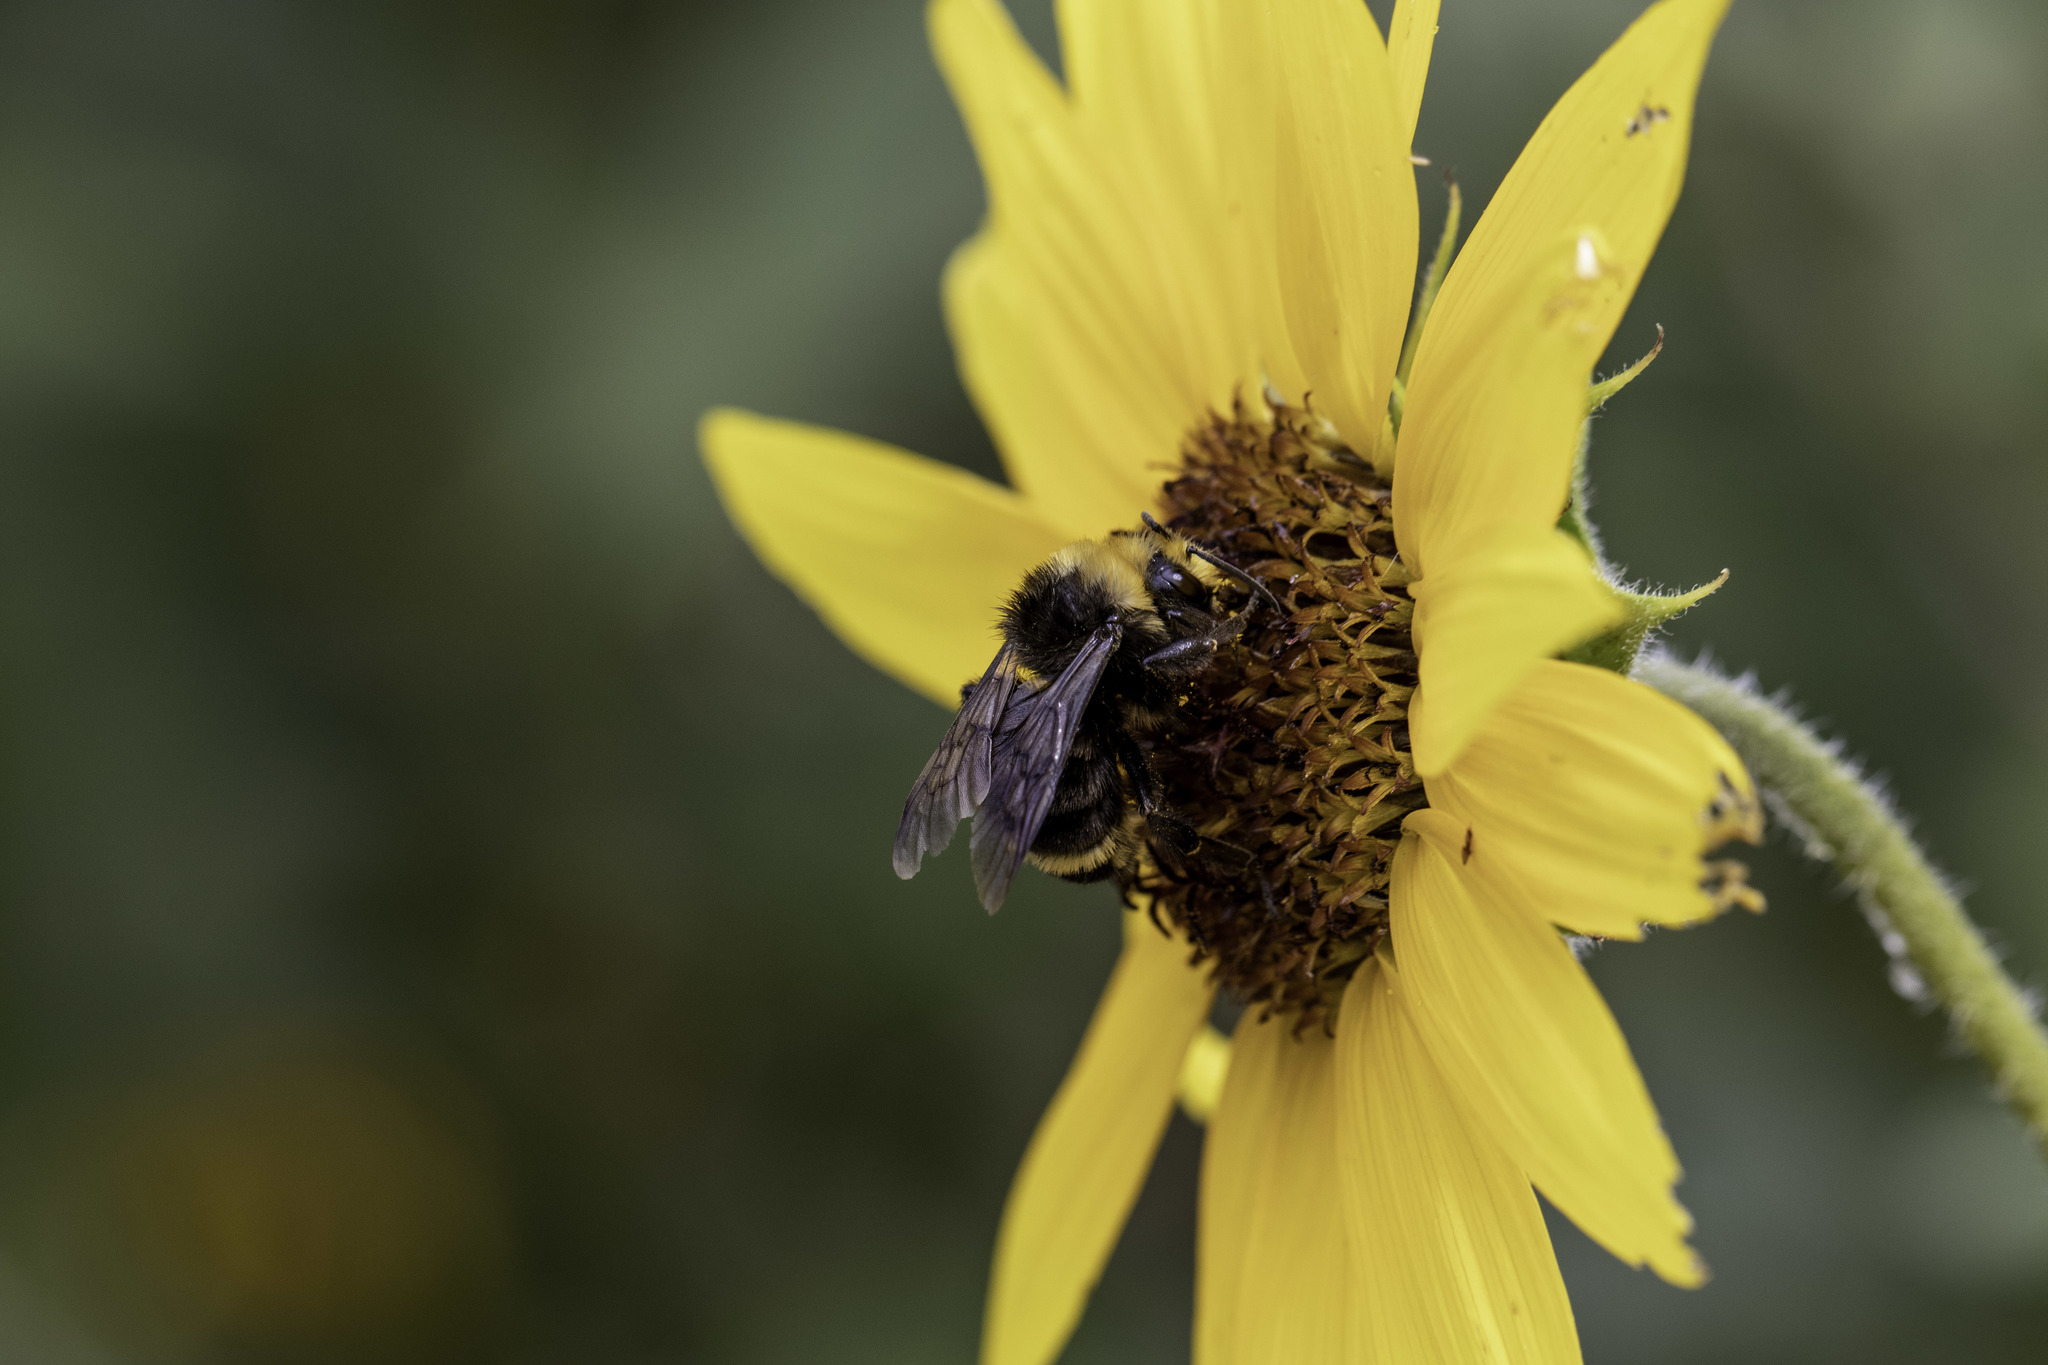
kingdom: Animalia
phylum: Arthropoda
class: Insecta
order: Hymenoptera
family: Apidae
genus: Bombus
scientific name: Bombus vosnesenskii
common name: Vosnesensky bumble bee
